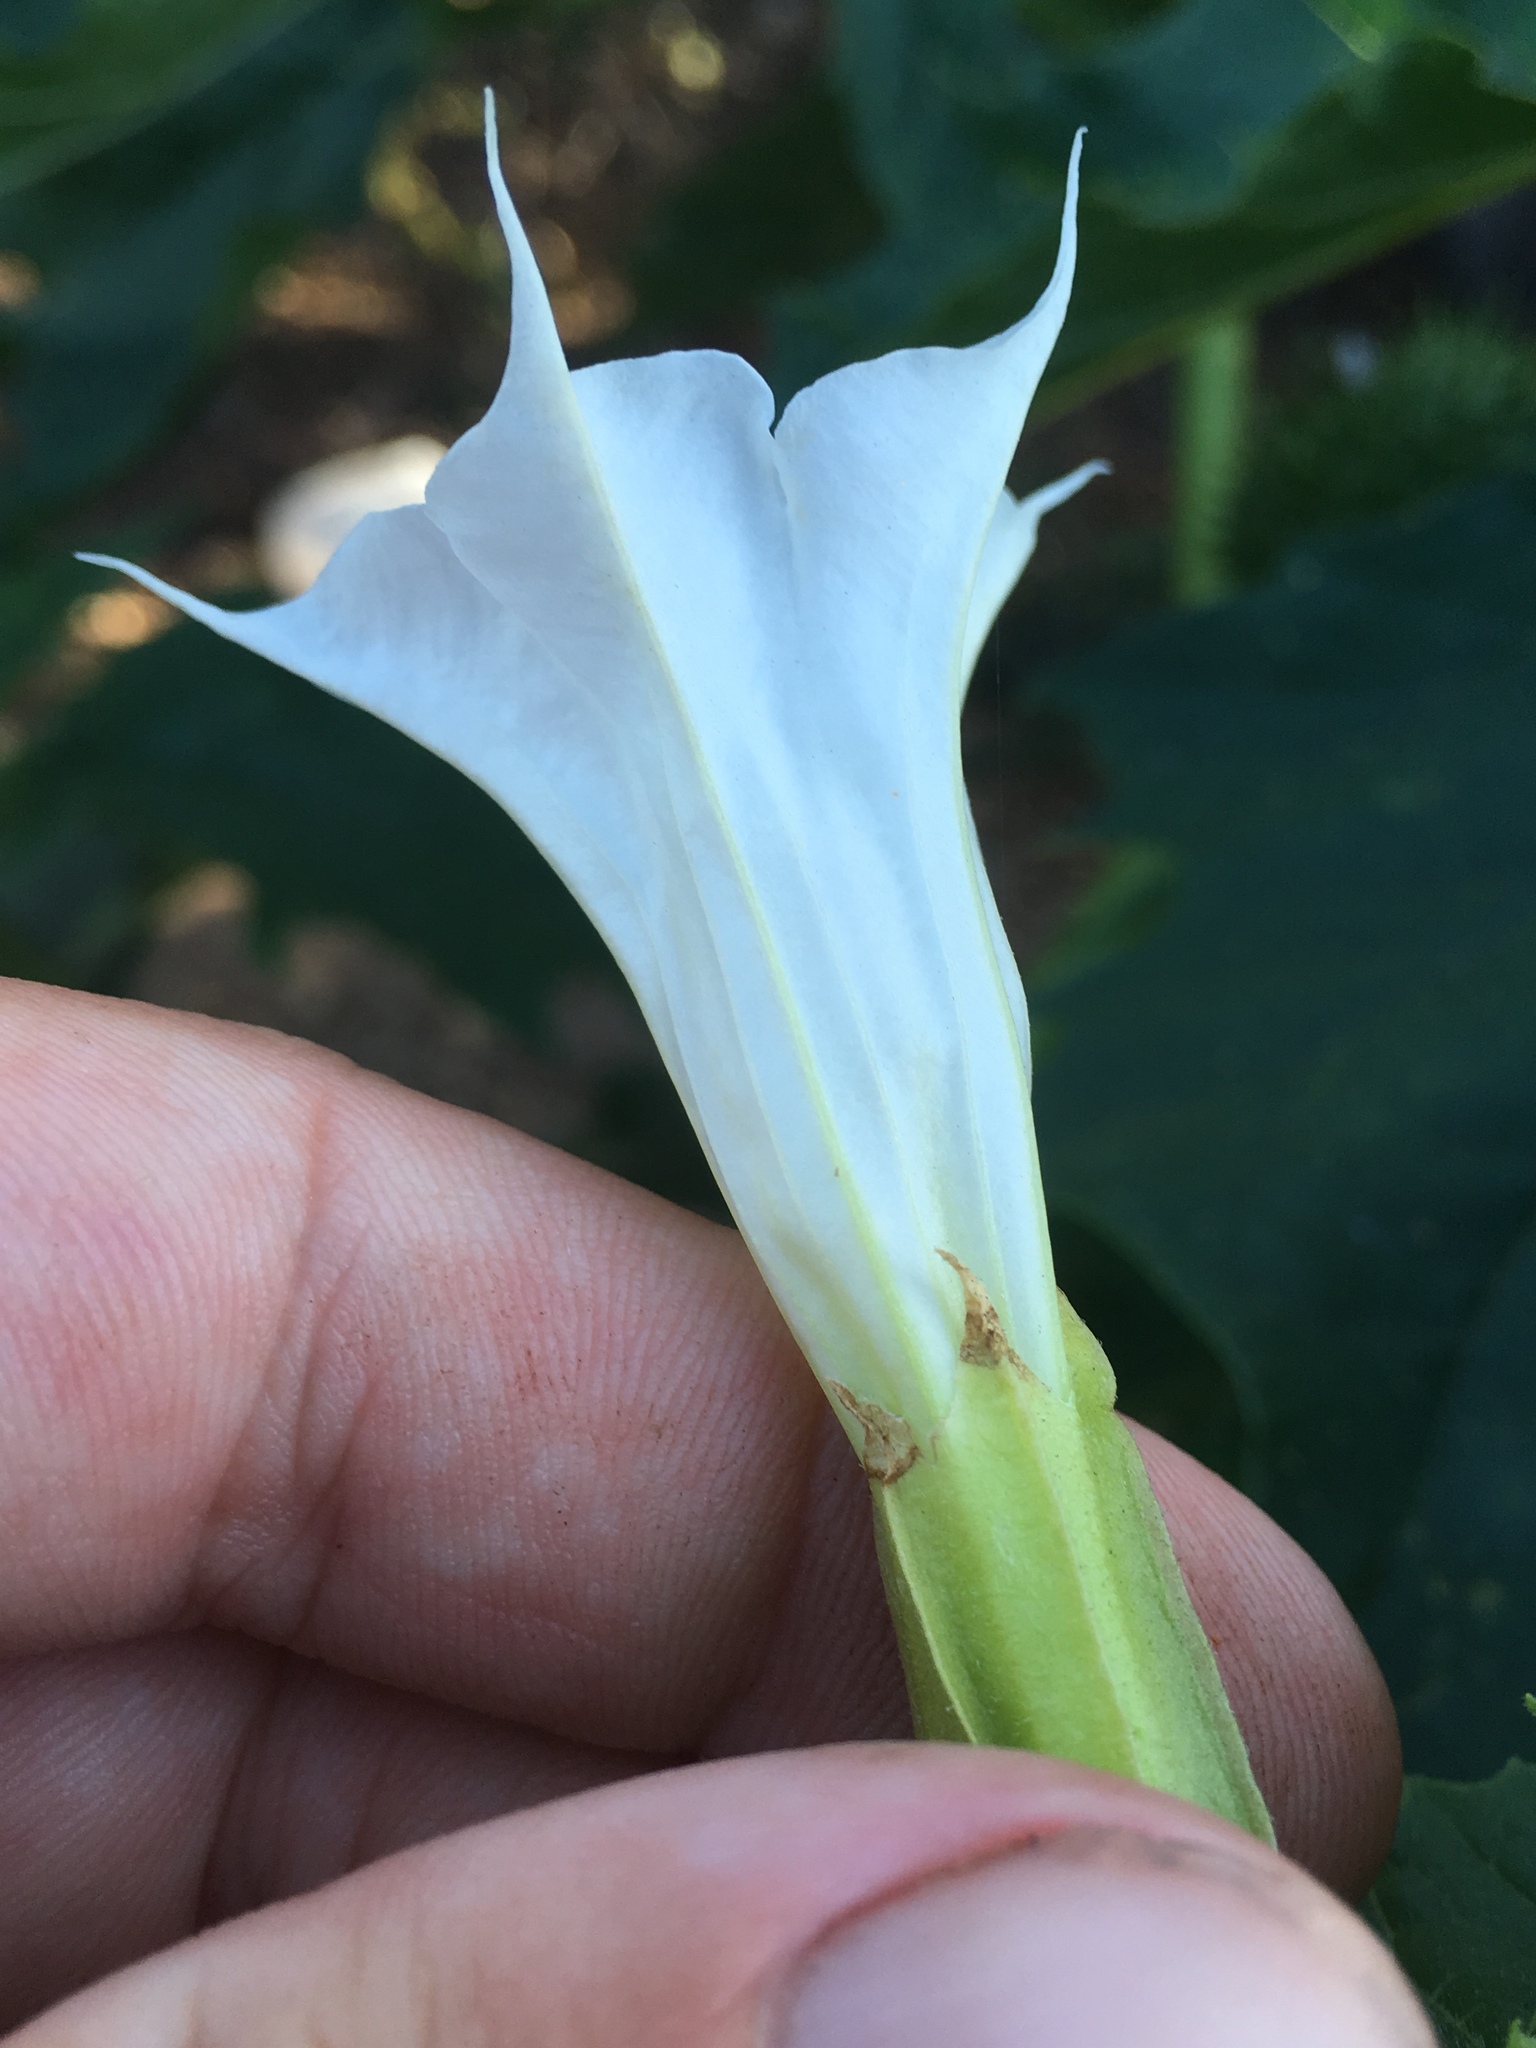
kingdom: Plantae
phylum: Tracheophyta
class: Magnoliopsida
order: Solanales
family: Solanaceae
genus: Datura
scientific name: Datura stramonium
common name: Thorn-apple
